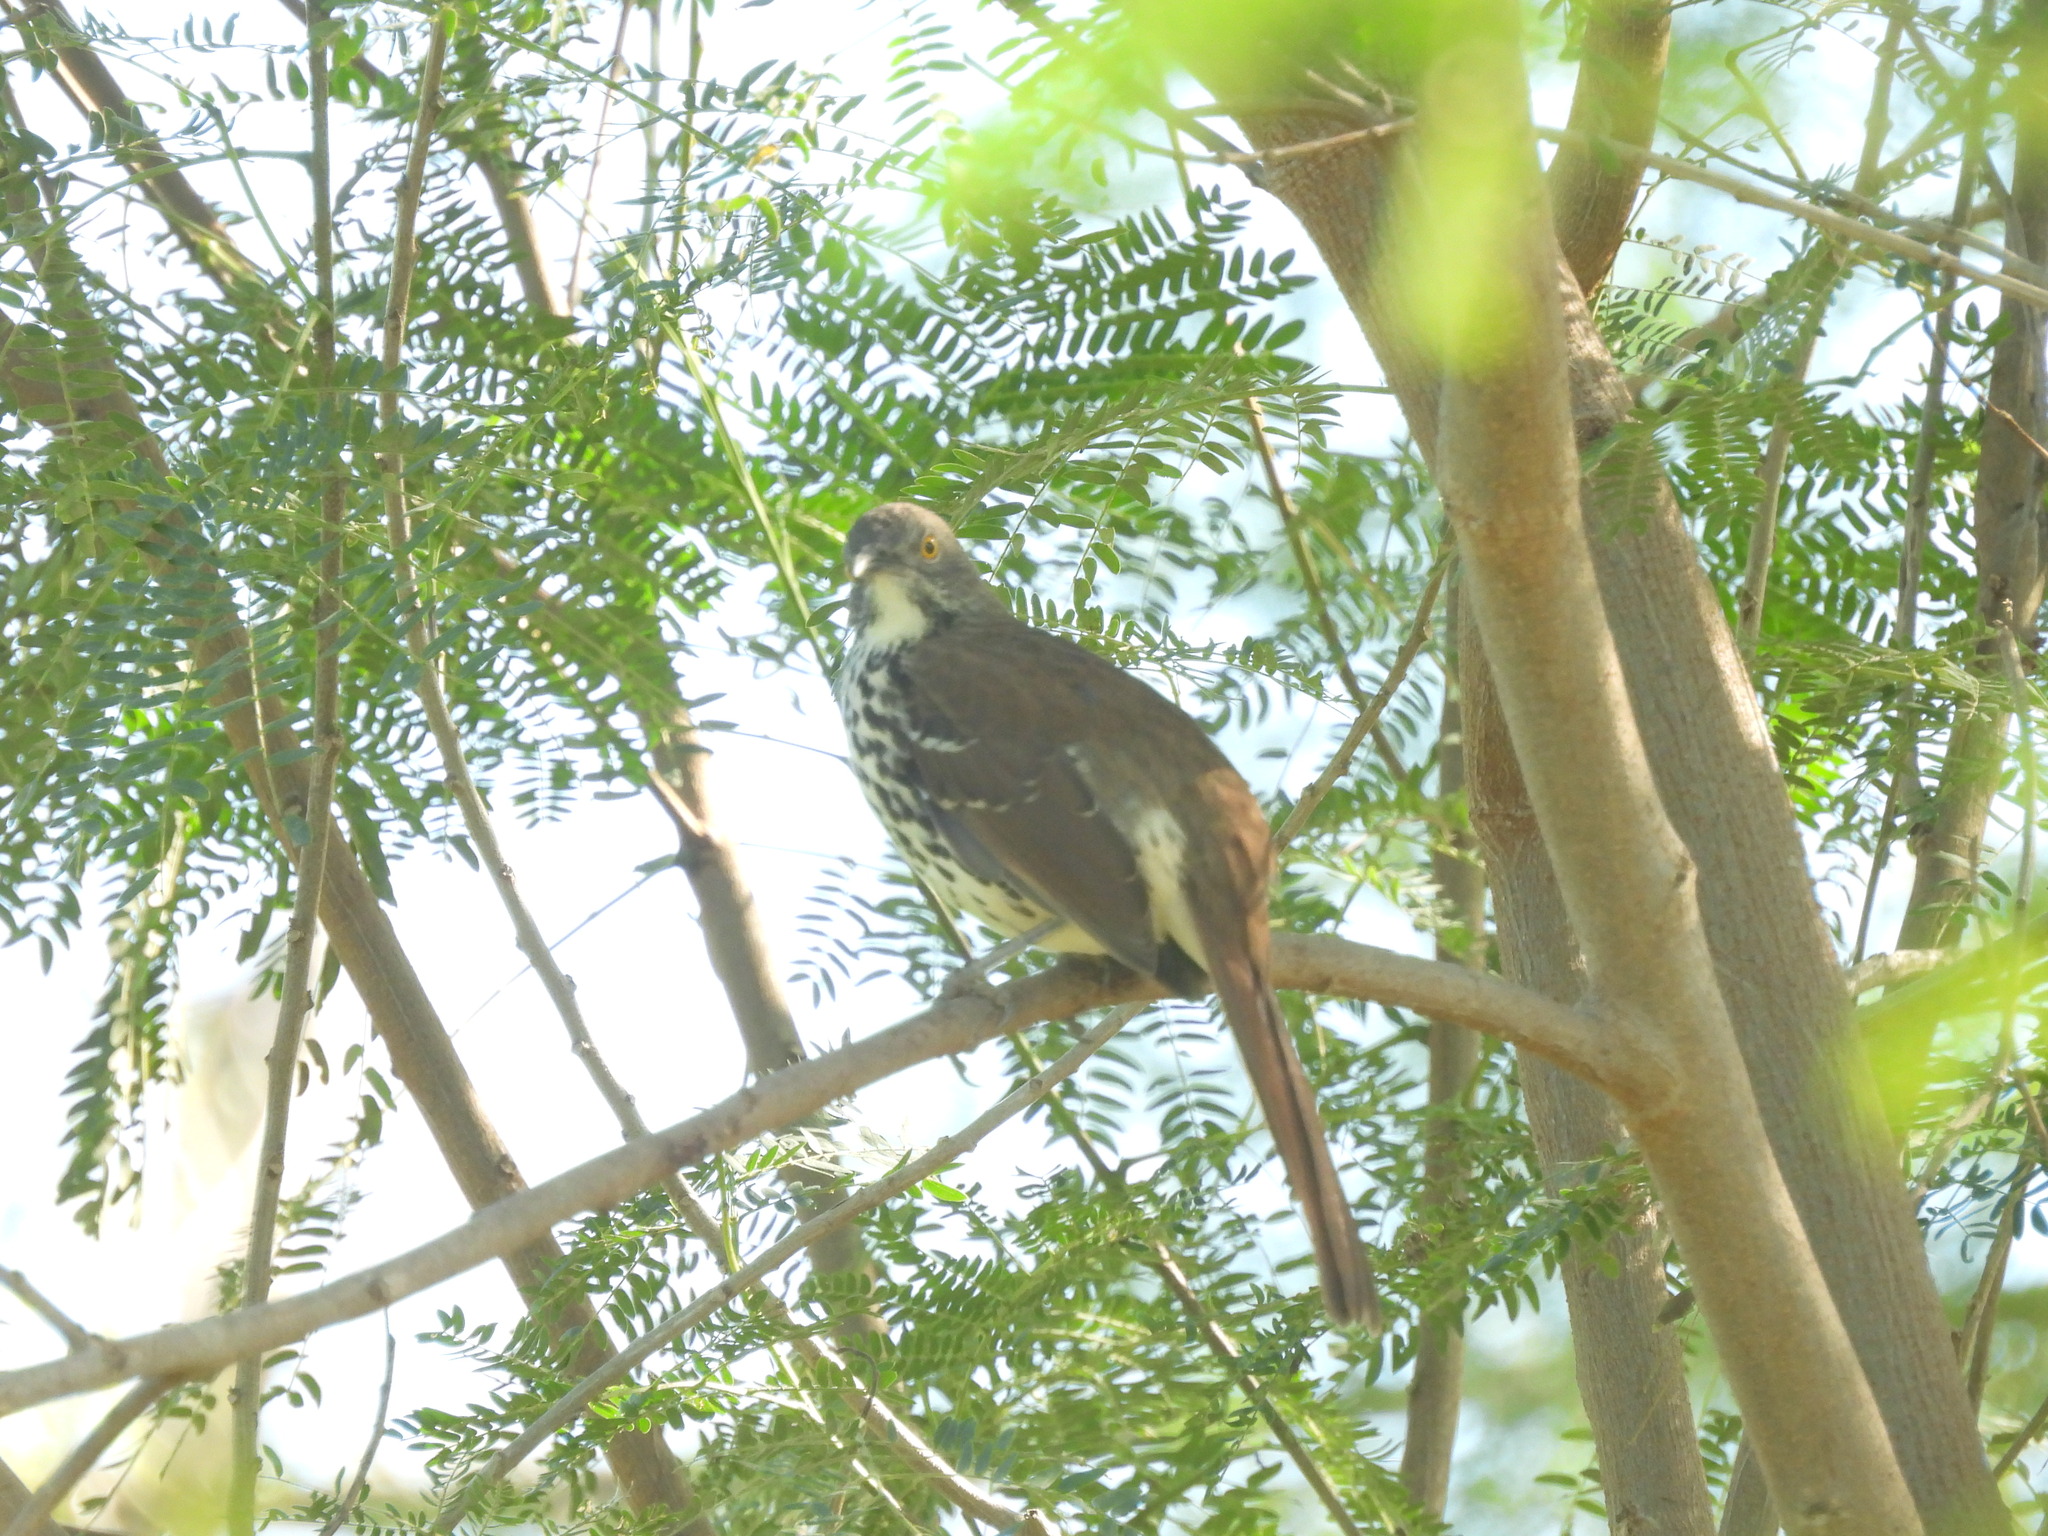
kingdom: Animalia
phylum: Chordata
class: Aves
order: Passeriformes
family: Mimidae
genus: Toxostoma
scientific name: Toxostoma longirostre
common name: Long-billed thrasher
